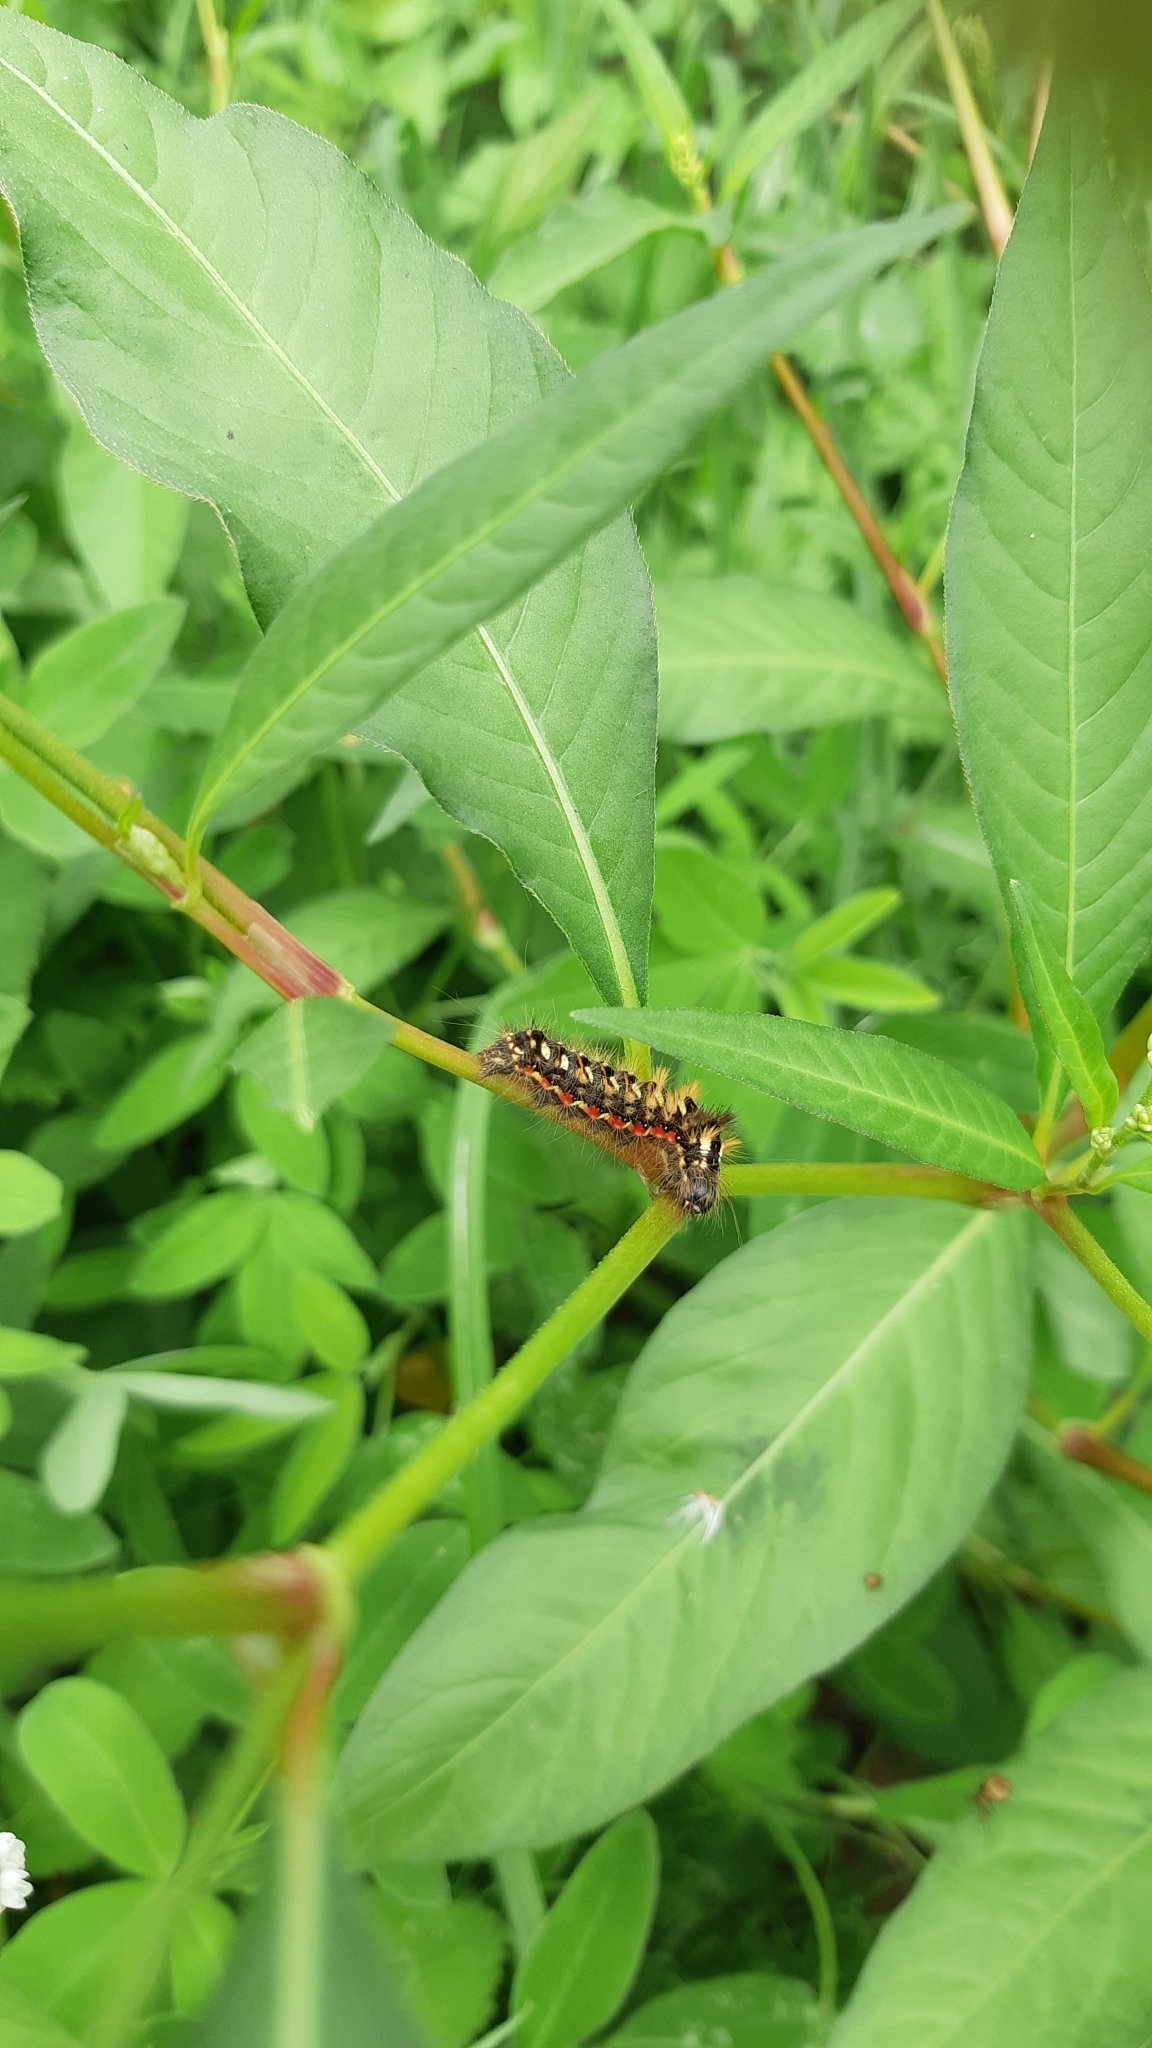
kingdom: Animalia
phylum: Arthropoda
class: Insecta
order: Lepidoptera
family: Noctuidae
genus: Acronicta
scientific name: Acronicta rumicis
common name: Knot grass
